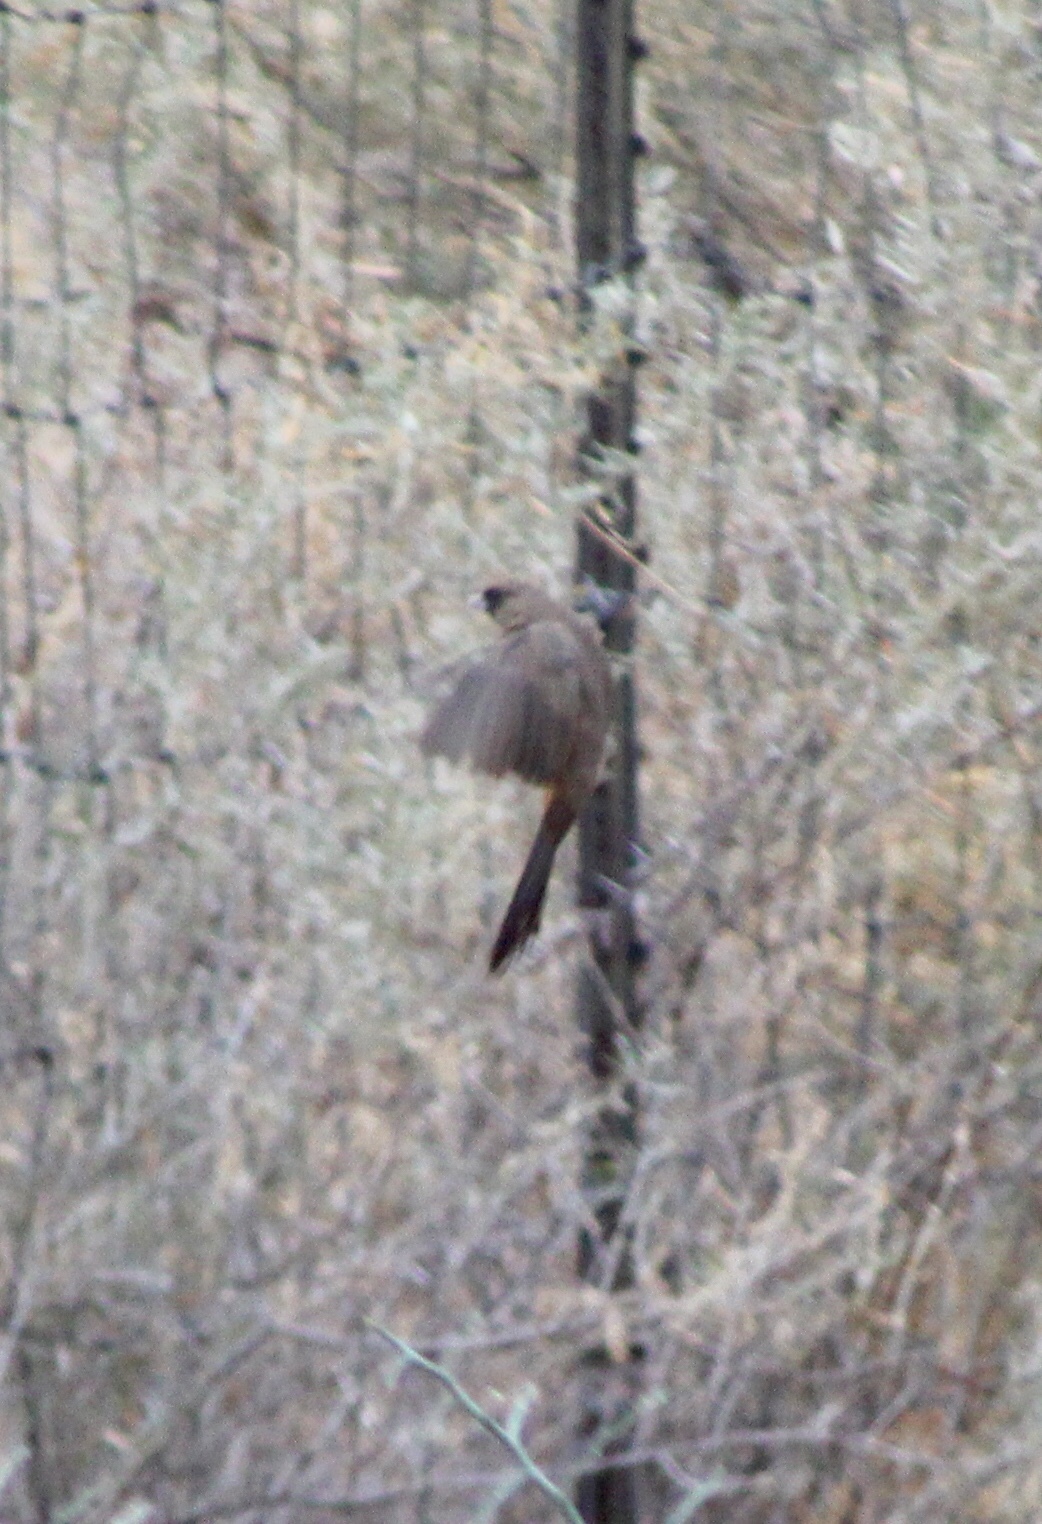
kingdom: Animalia
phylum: Chordata
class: Aves
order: Passeriformes
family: Passerellidae
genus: Melozone
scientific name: Melozone aberti
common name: Abert's towhee
